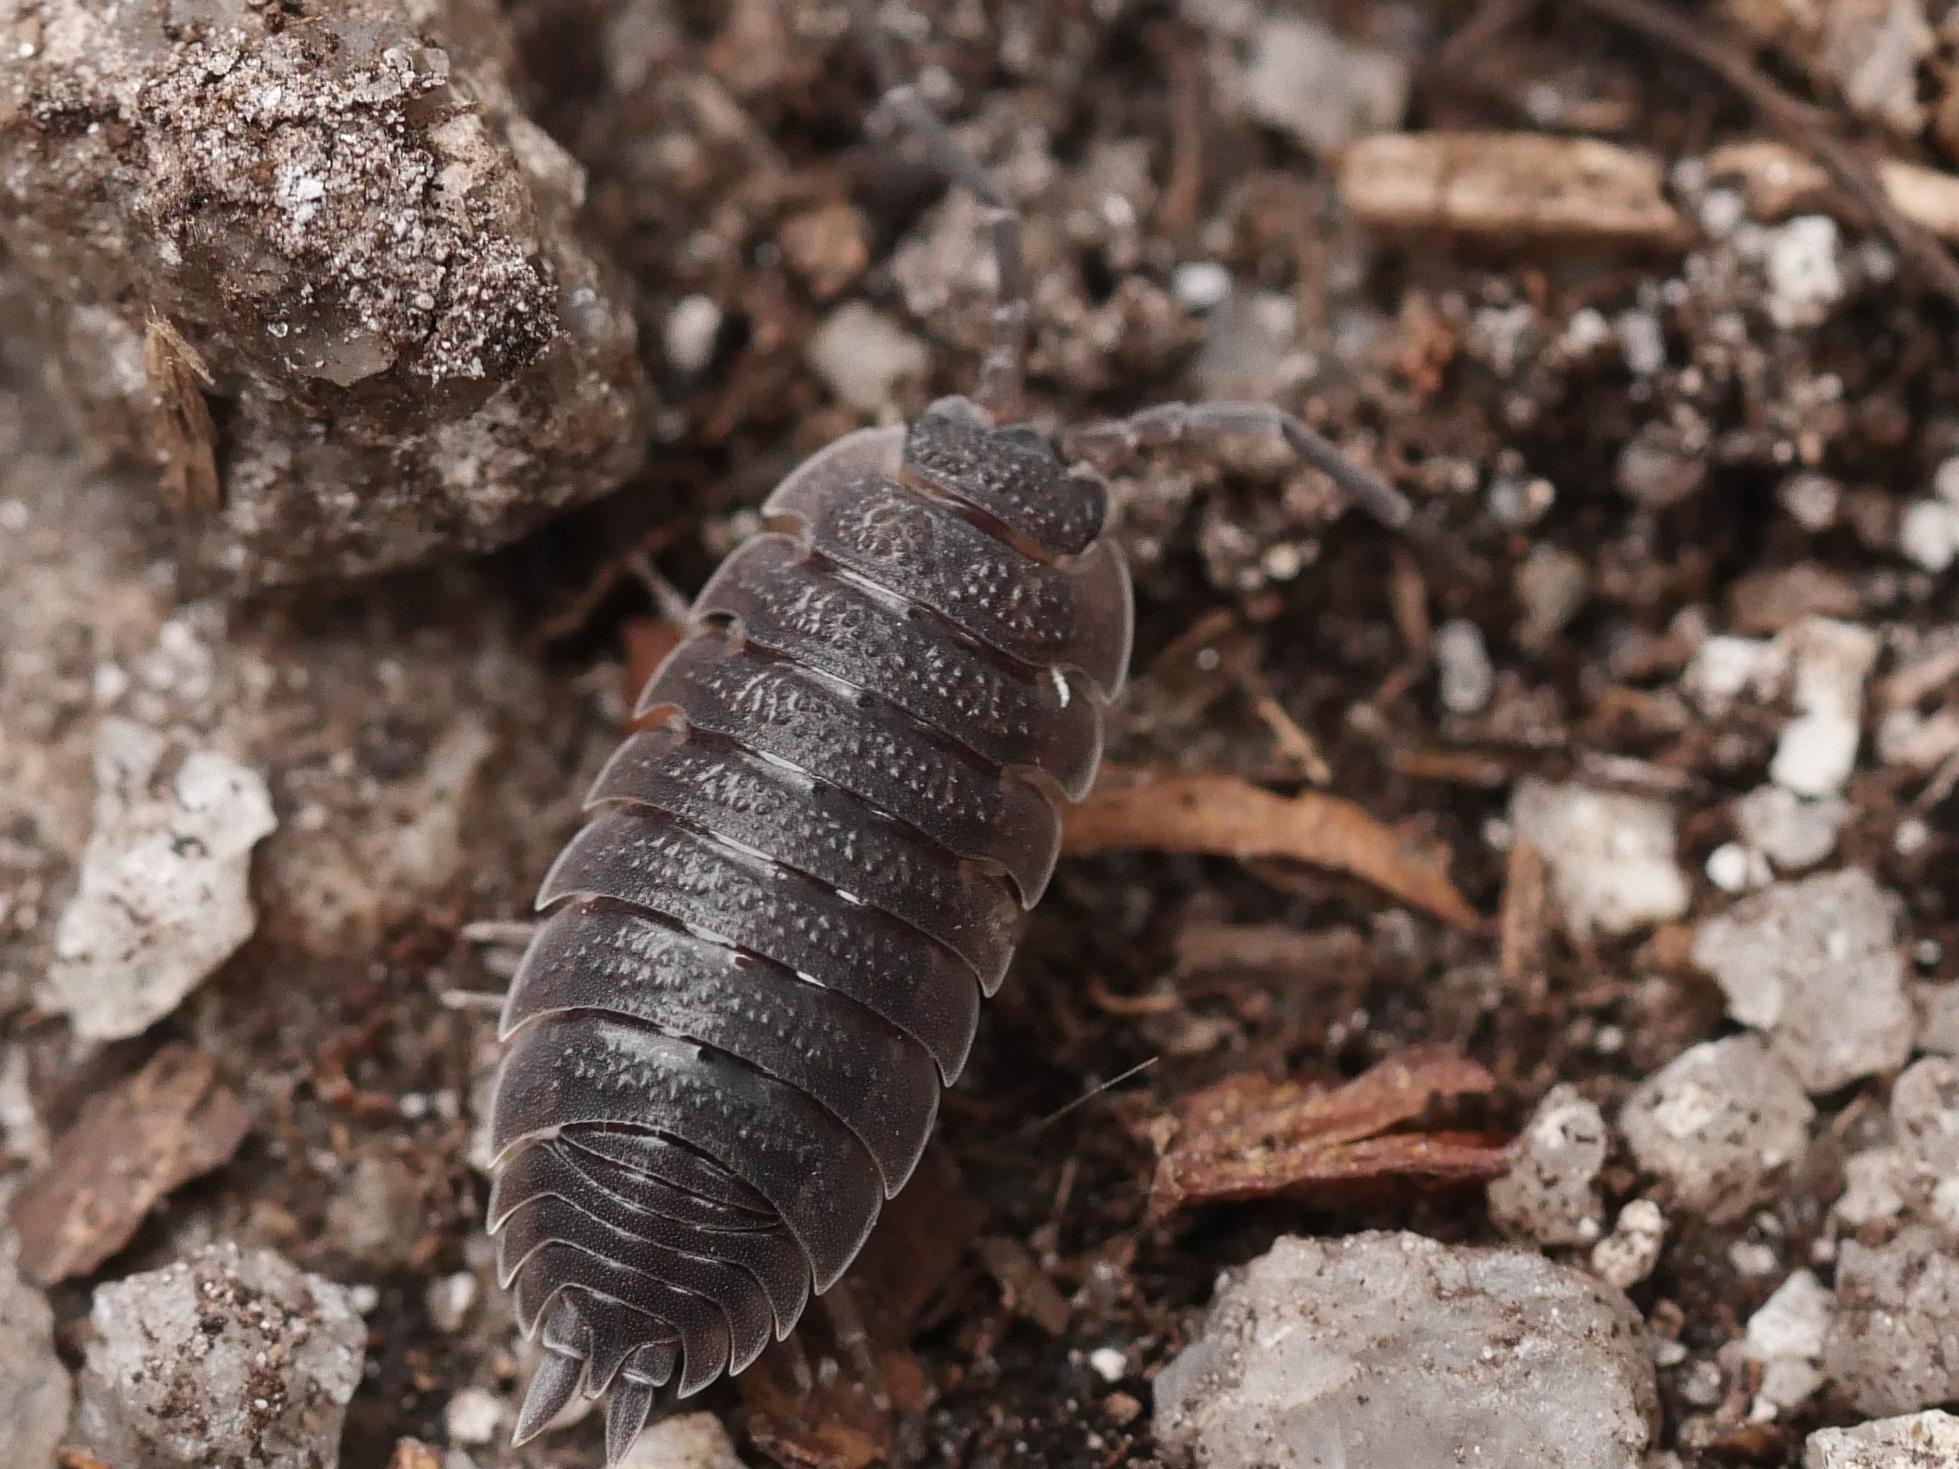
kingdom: Animalia
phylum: Arthropoda
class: Malacostraca
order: Isopoda
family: Porcellionidae
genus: Porcellio
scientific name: Porcellio scaber
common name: Common rough woodlouse
